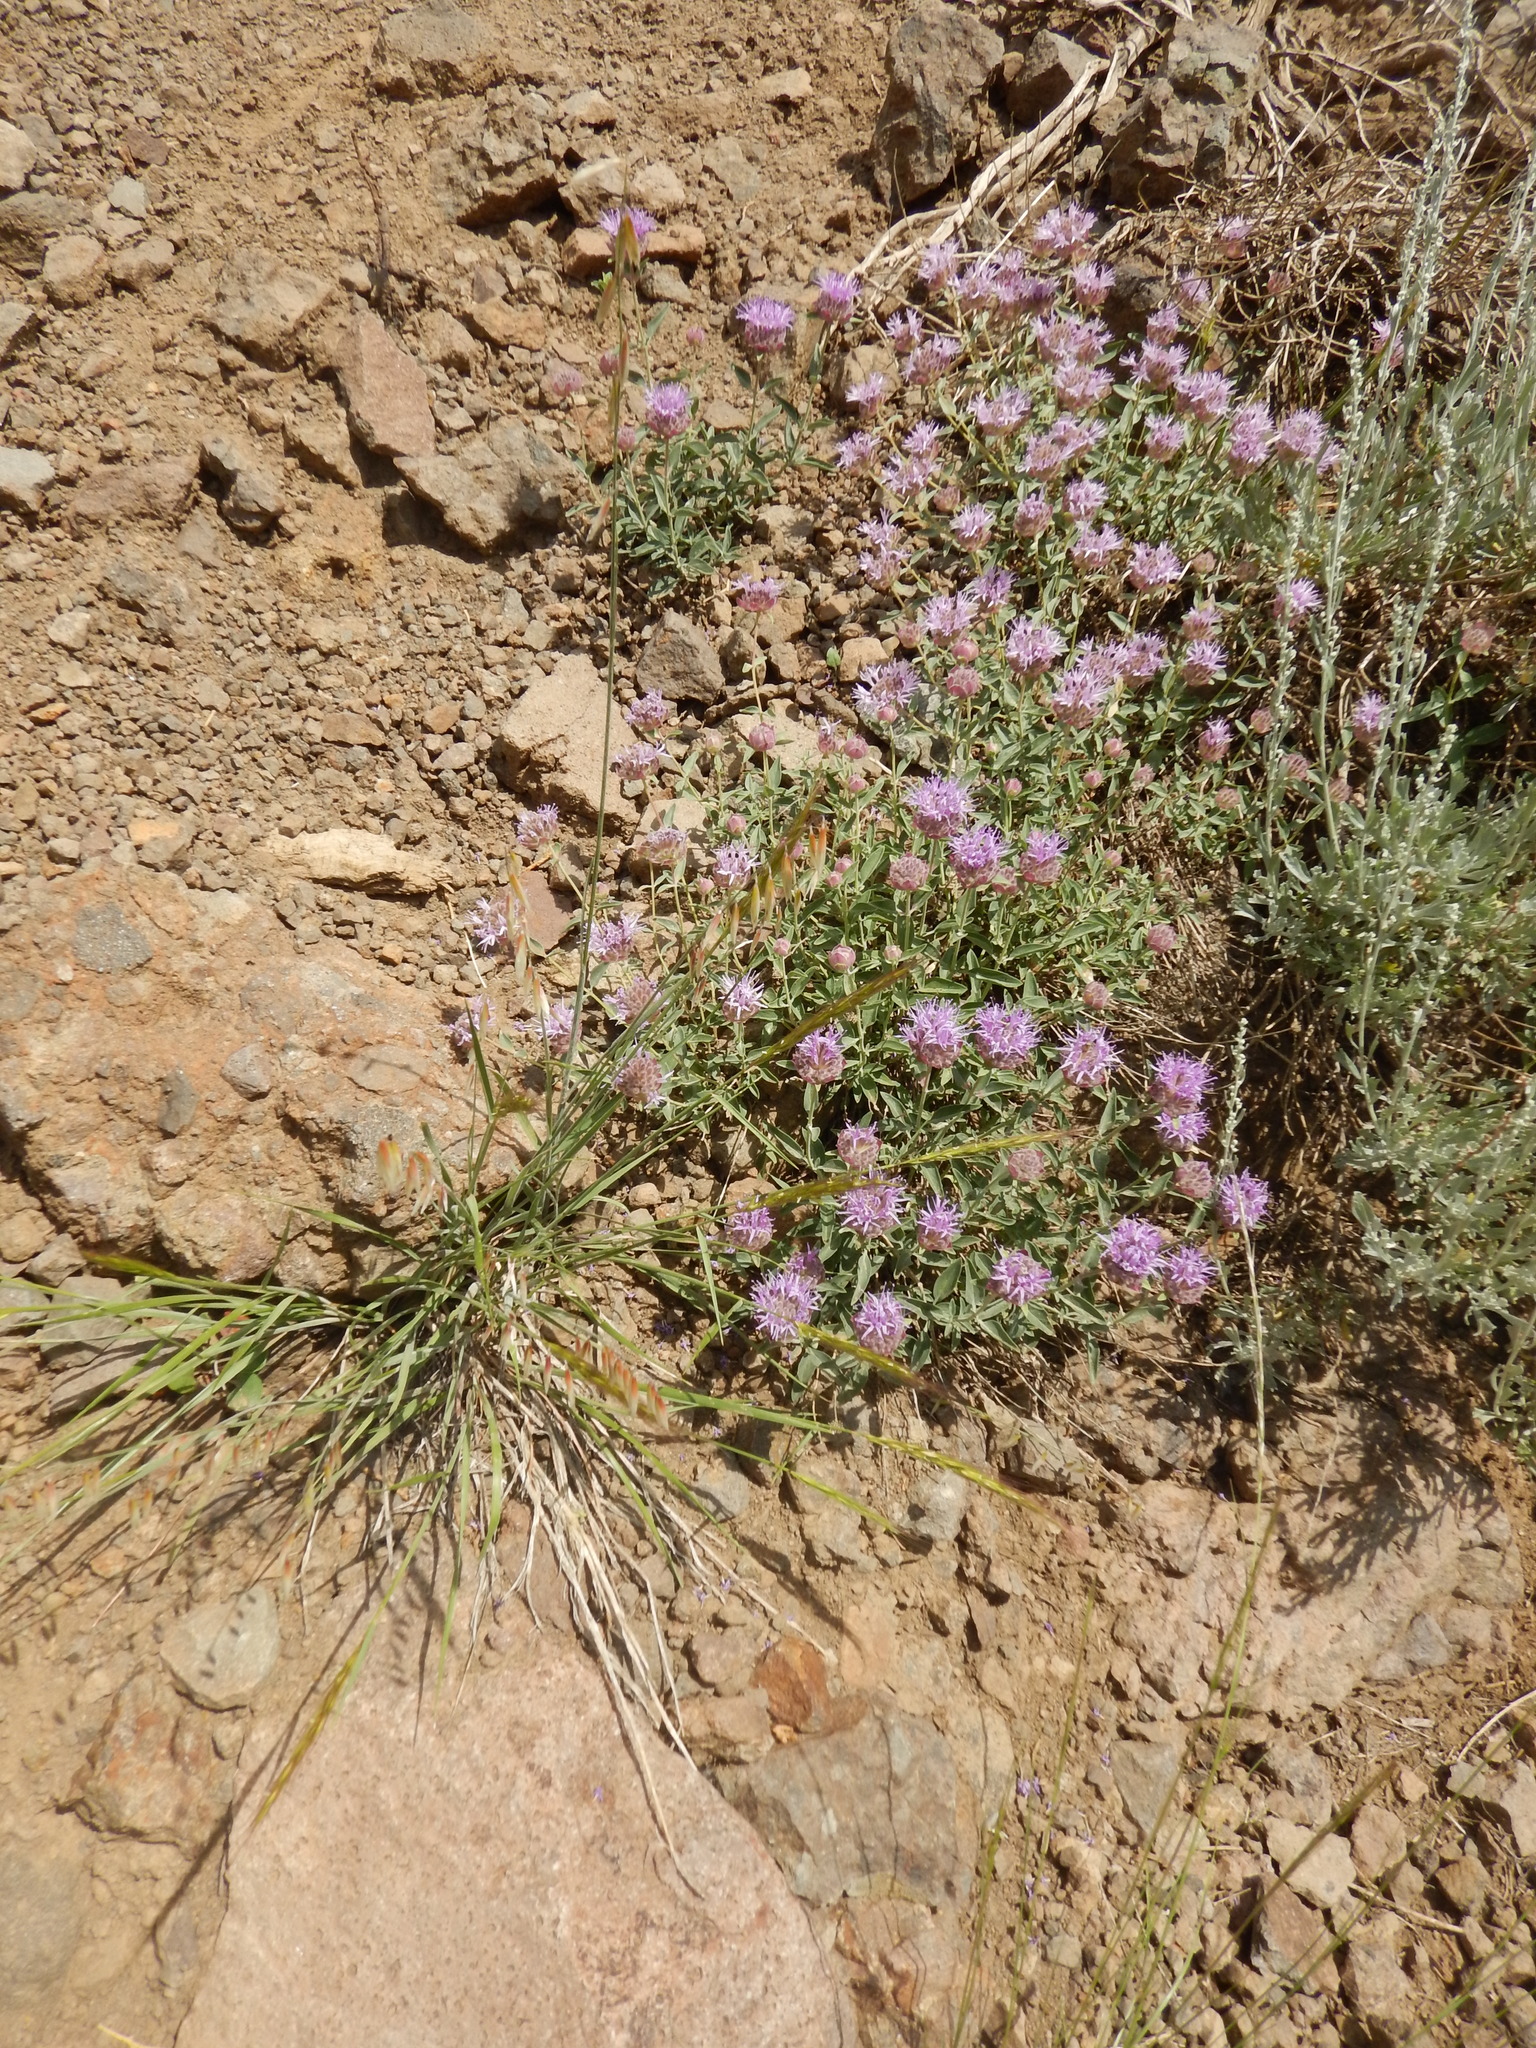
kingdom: Plantae
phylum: Tracheophyta
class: Magnoliopsida
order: Lamiales
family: Lamiaceae
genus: Monardella
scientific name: Monardella odoratissima
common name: Pacific monardella
